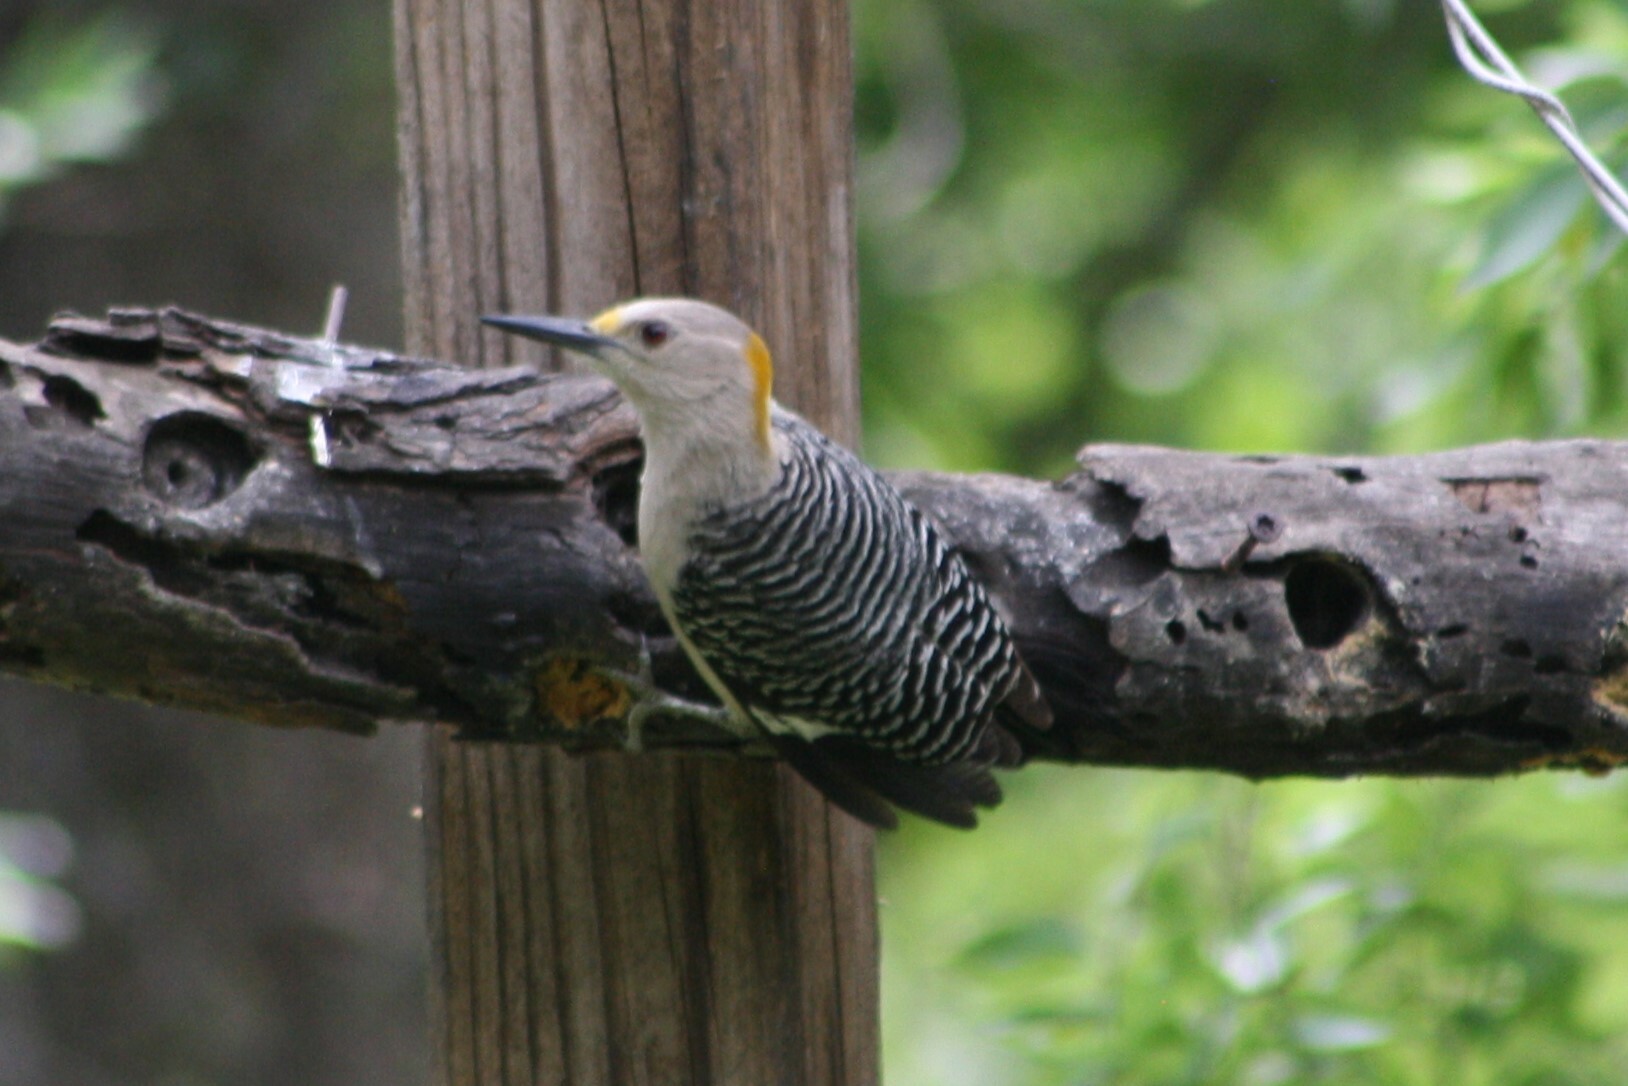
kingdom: Animalia
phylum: Chordata
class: Aves
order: Piciformes
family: Picidae
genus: Melanerpes
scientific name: Melanerpes aurifrons
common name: Golden-fronted woodpecker
